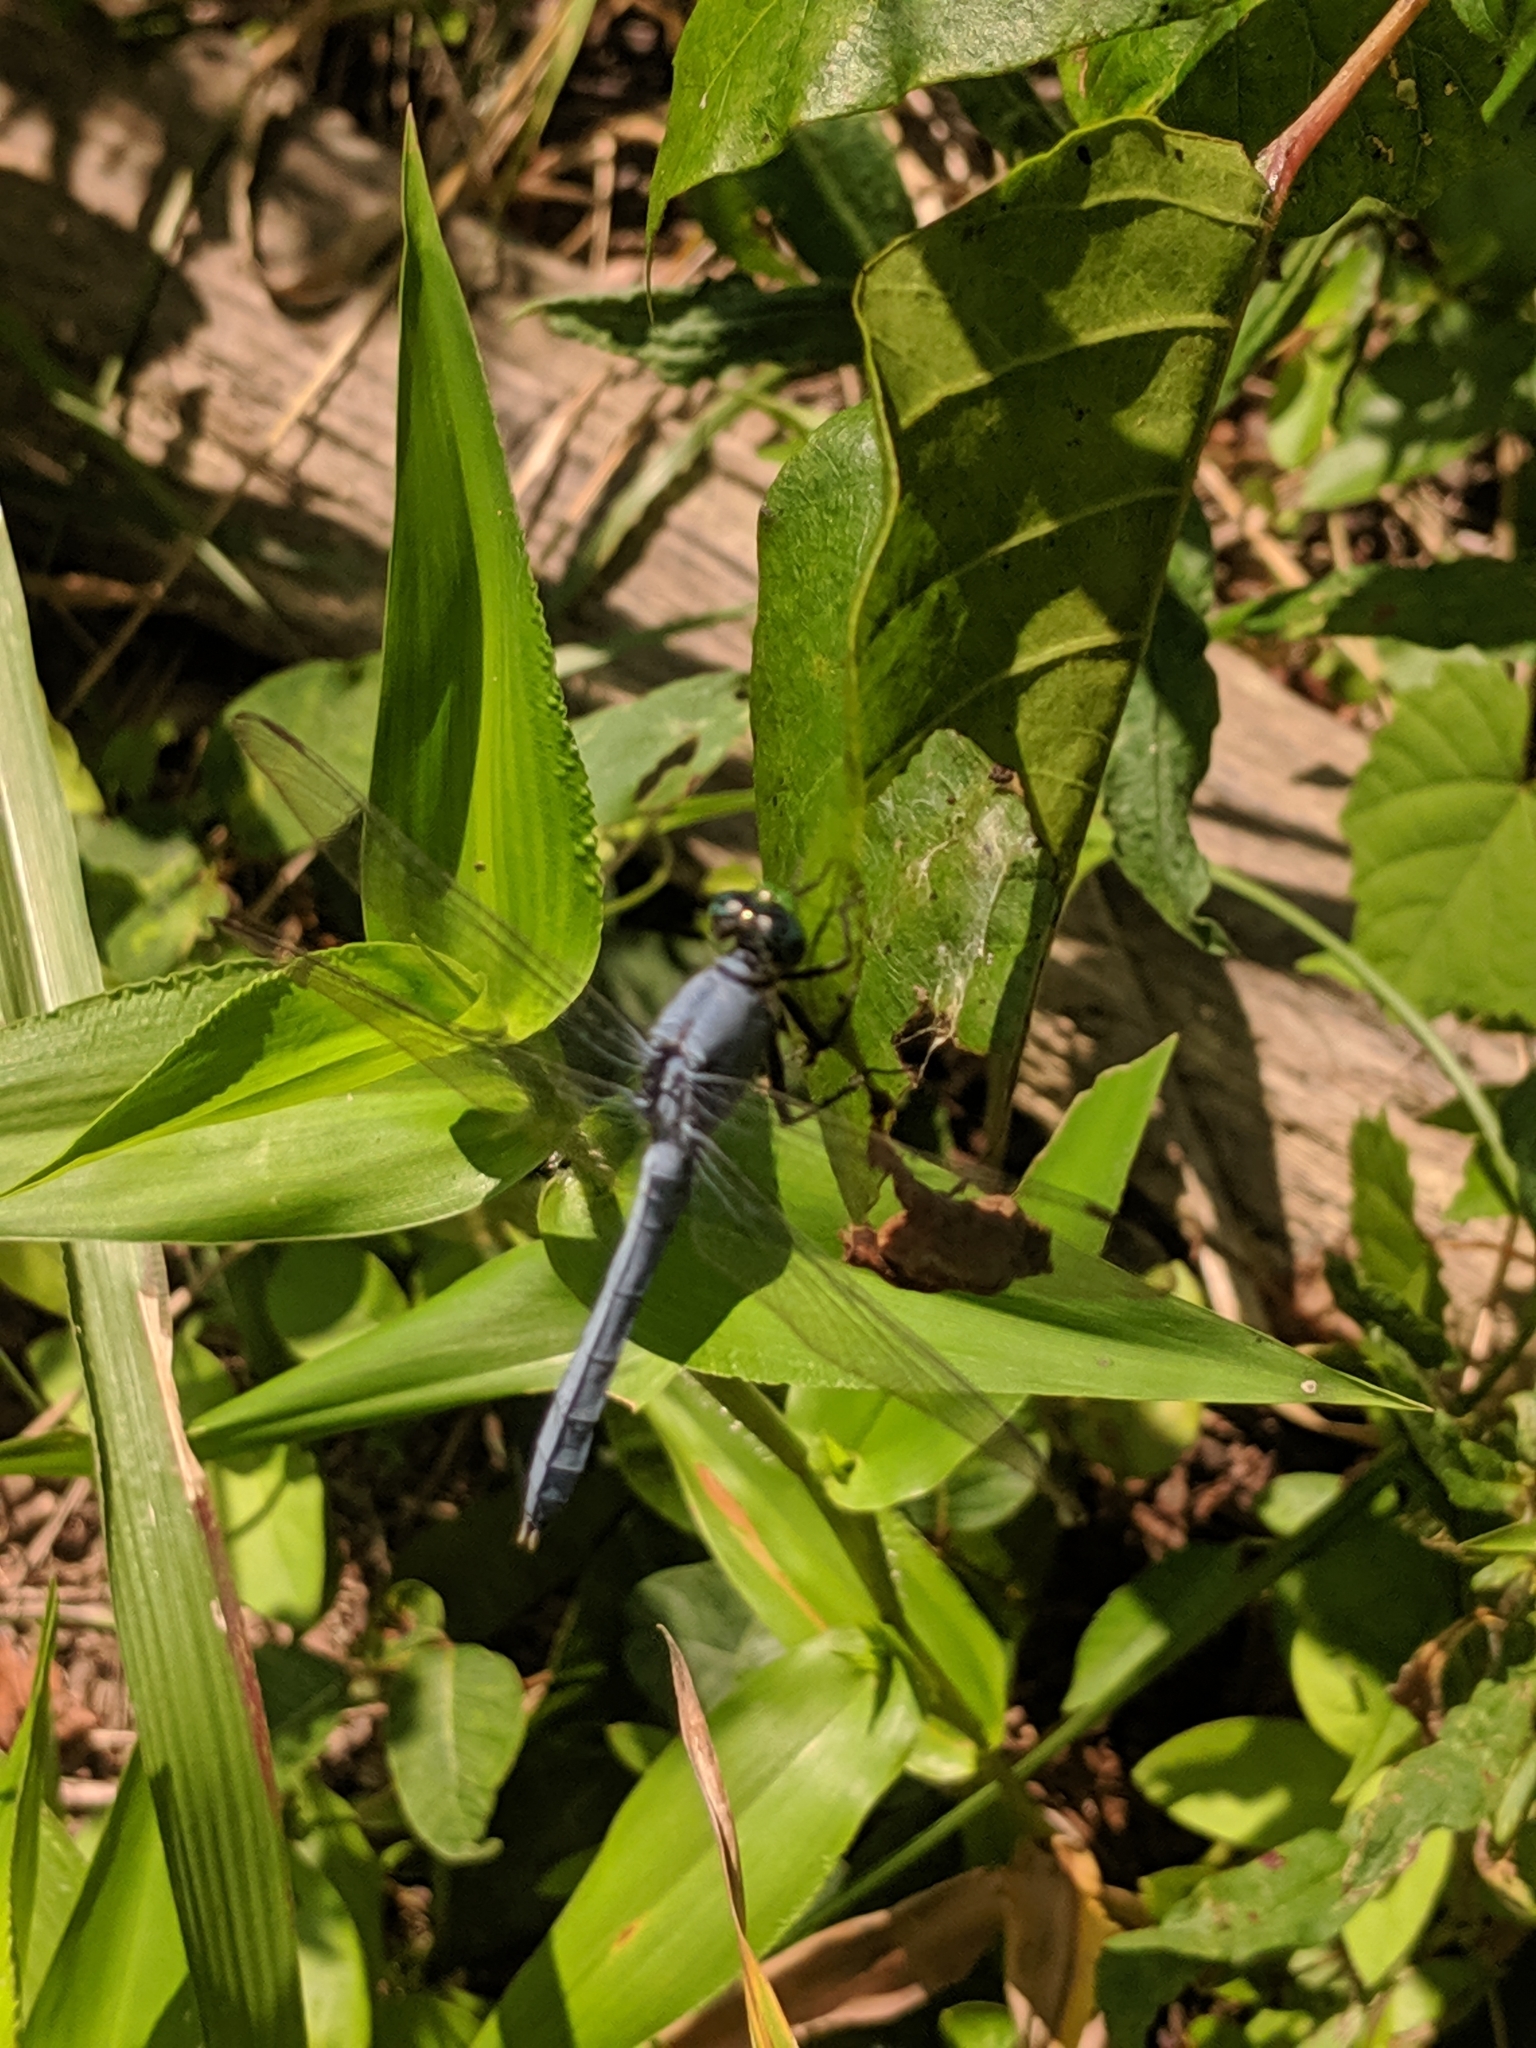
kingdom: Animalia
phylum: Arthropoda
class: Insecta
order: Odonata
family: Libellulidae
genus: Erythemis
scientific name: Erythemis simplicicollis
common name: Eastern pondhawk
